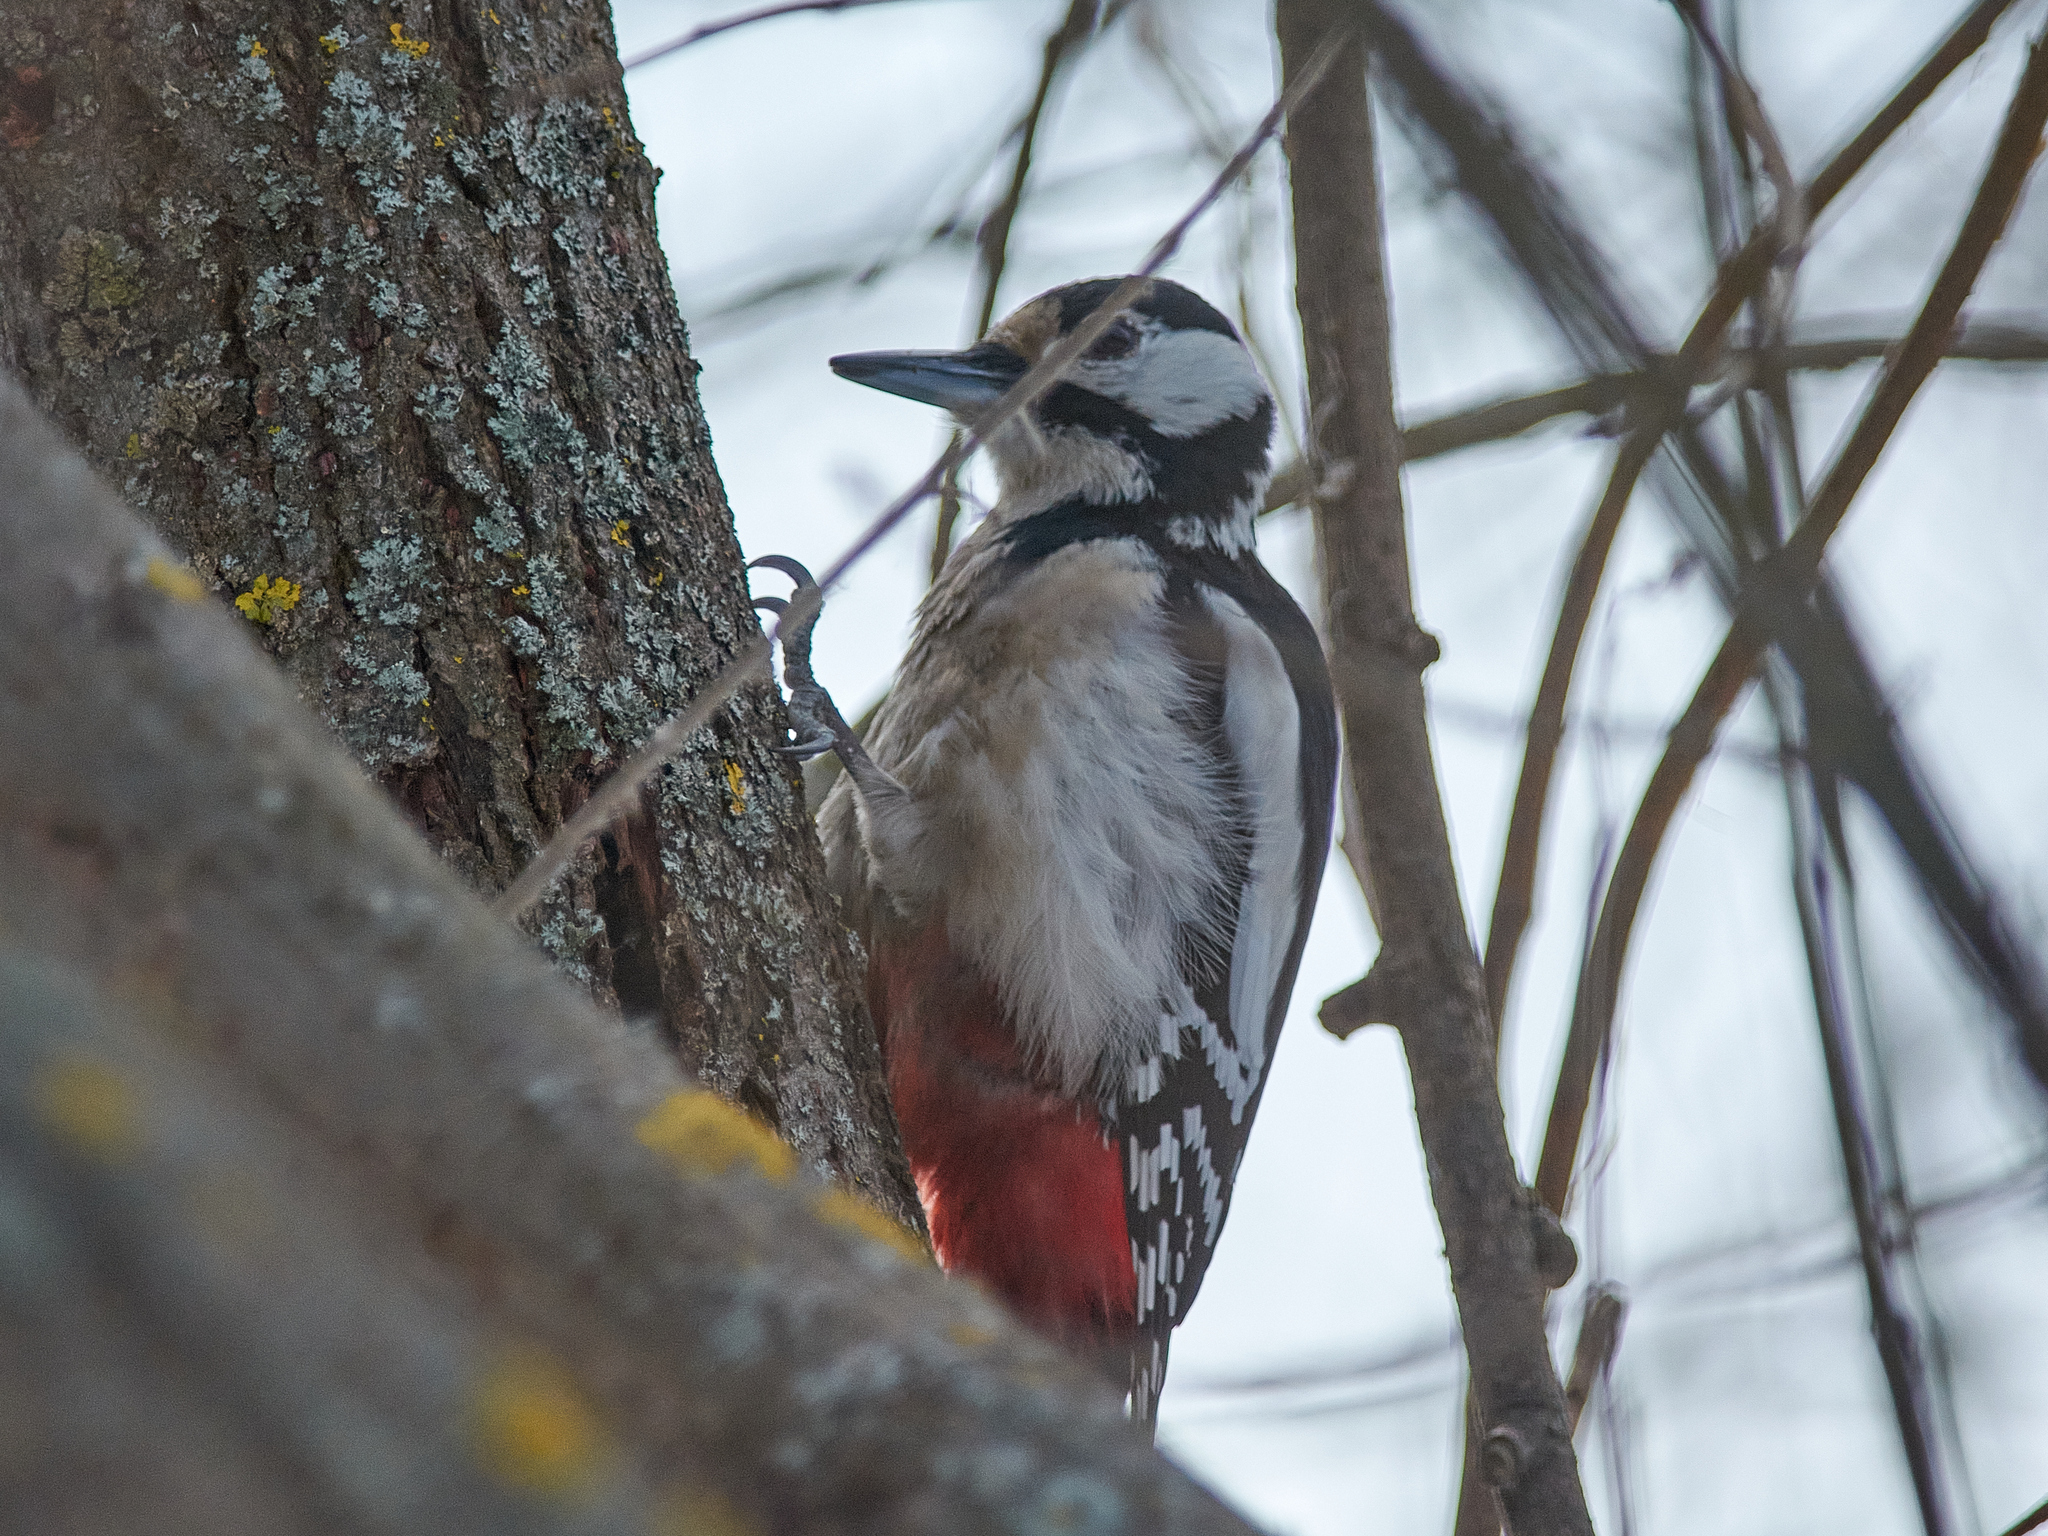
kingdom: Animalia
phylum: Chordata
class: Aves
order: Piciformes
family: Picidae
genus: Dendrocopos
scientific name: Dendrocopos major
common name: Great spotted woodpecker
